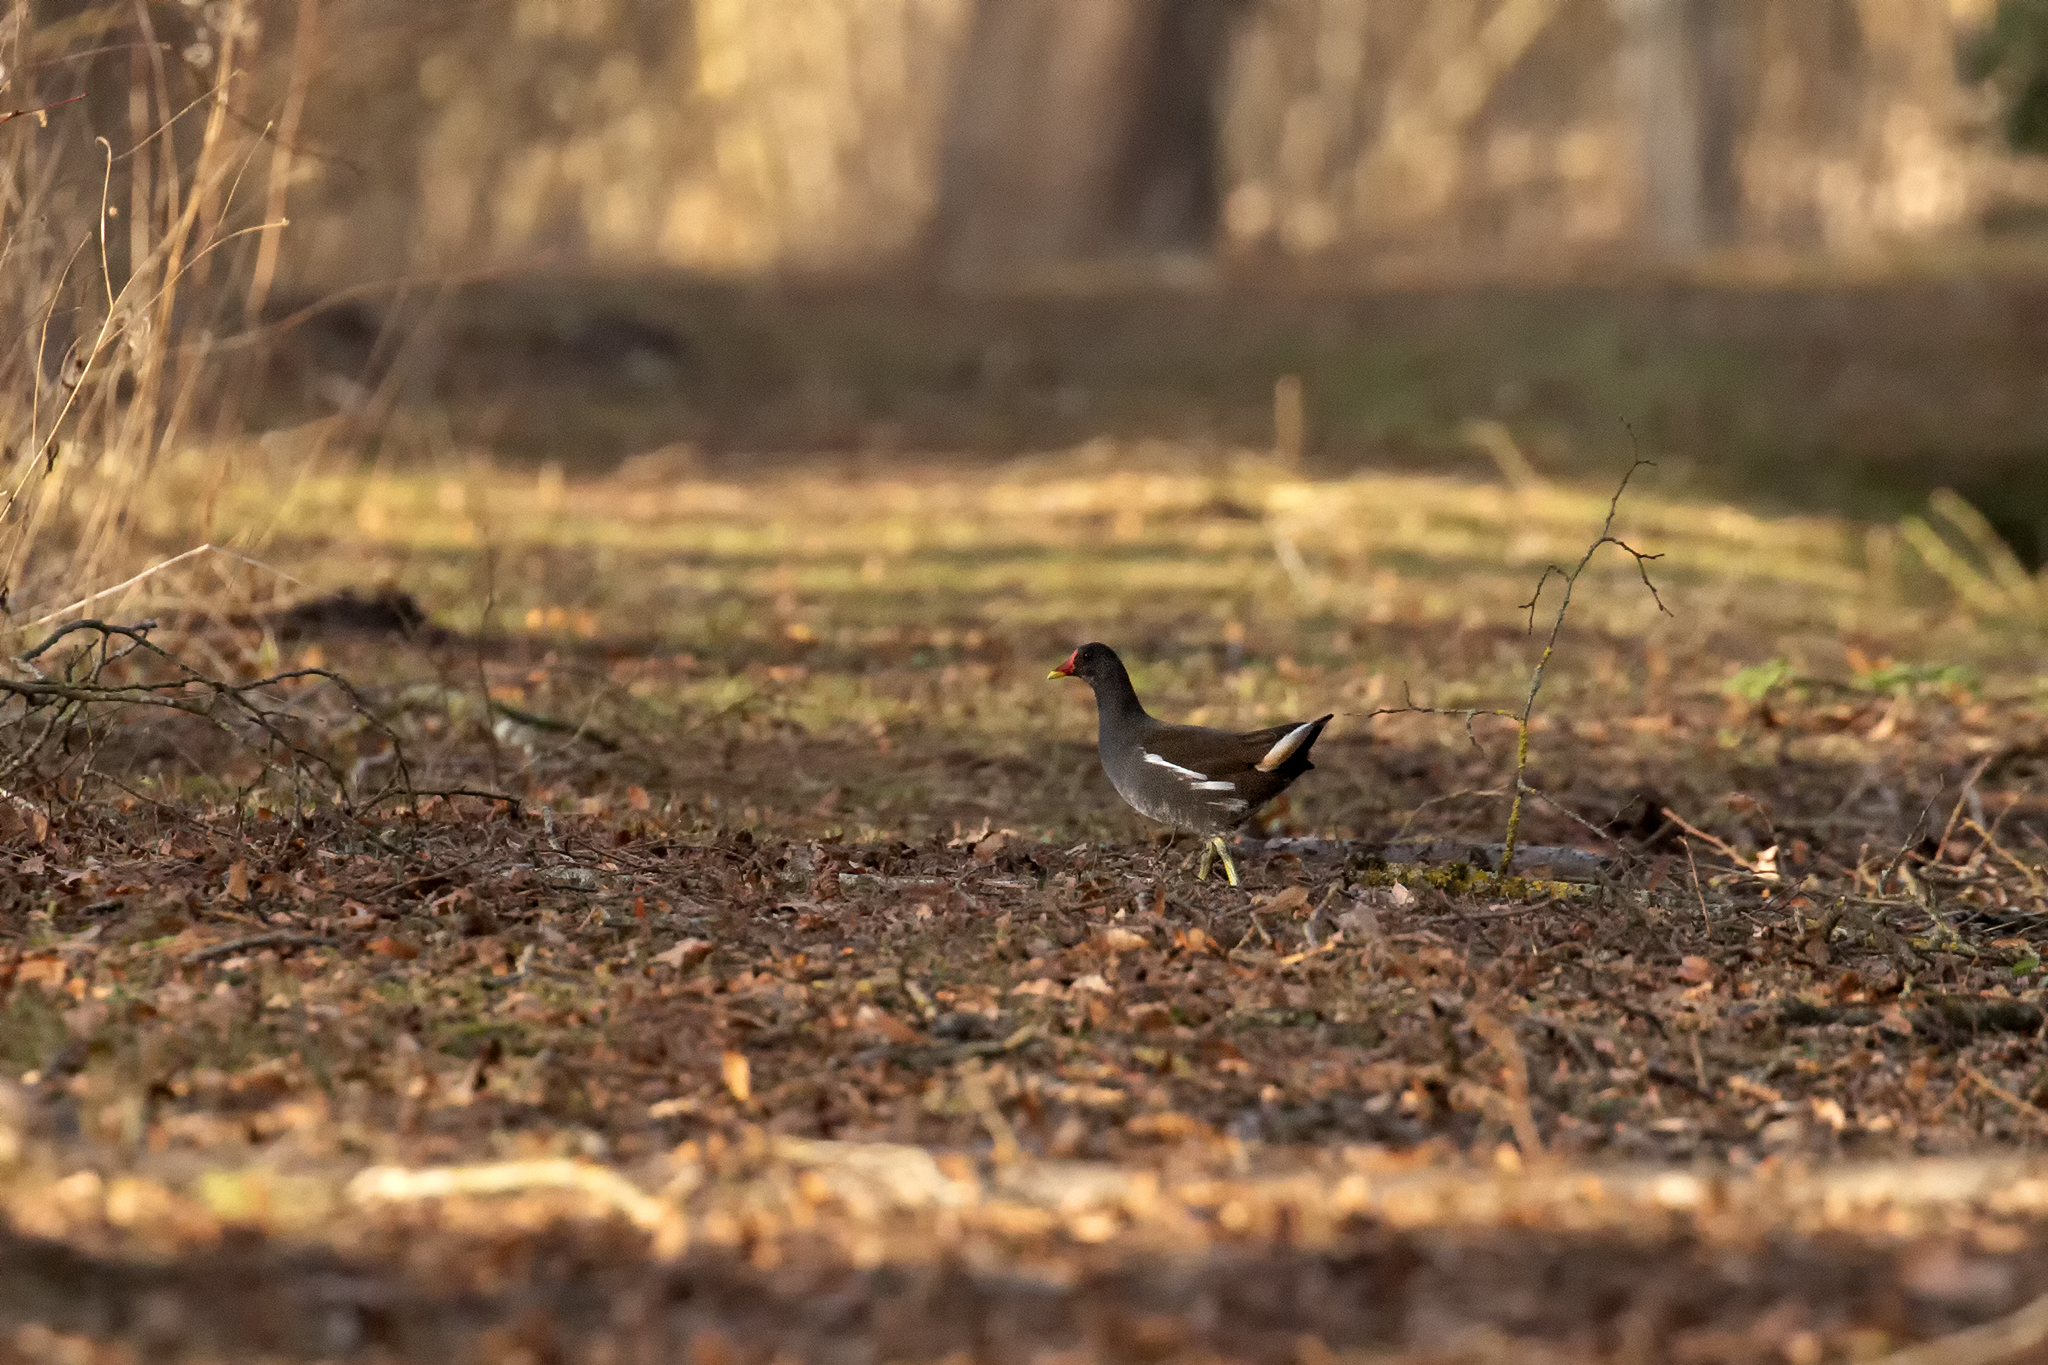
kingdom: Animalia
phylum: Chordata
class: Aves
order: Gruiformes
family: Rallidae
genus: Gallinula
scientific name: Gallinula chloropus
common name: Common moorhen
